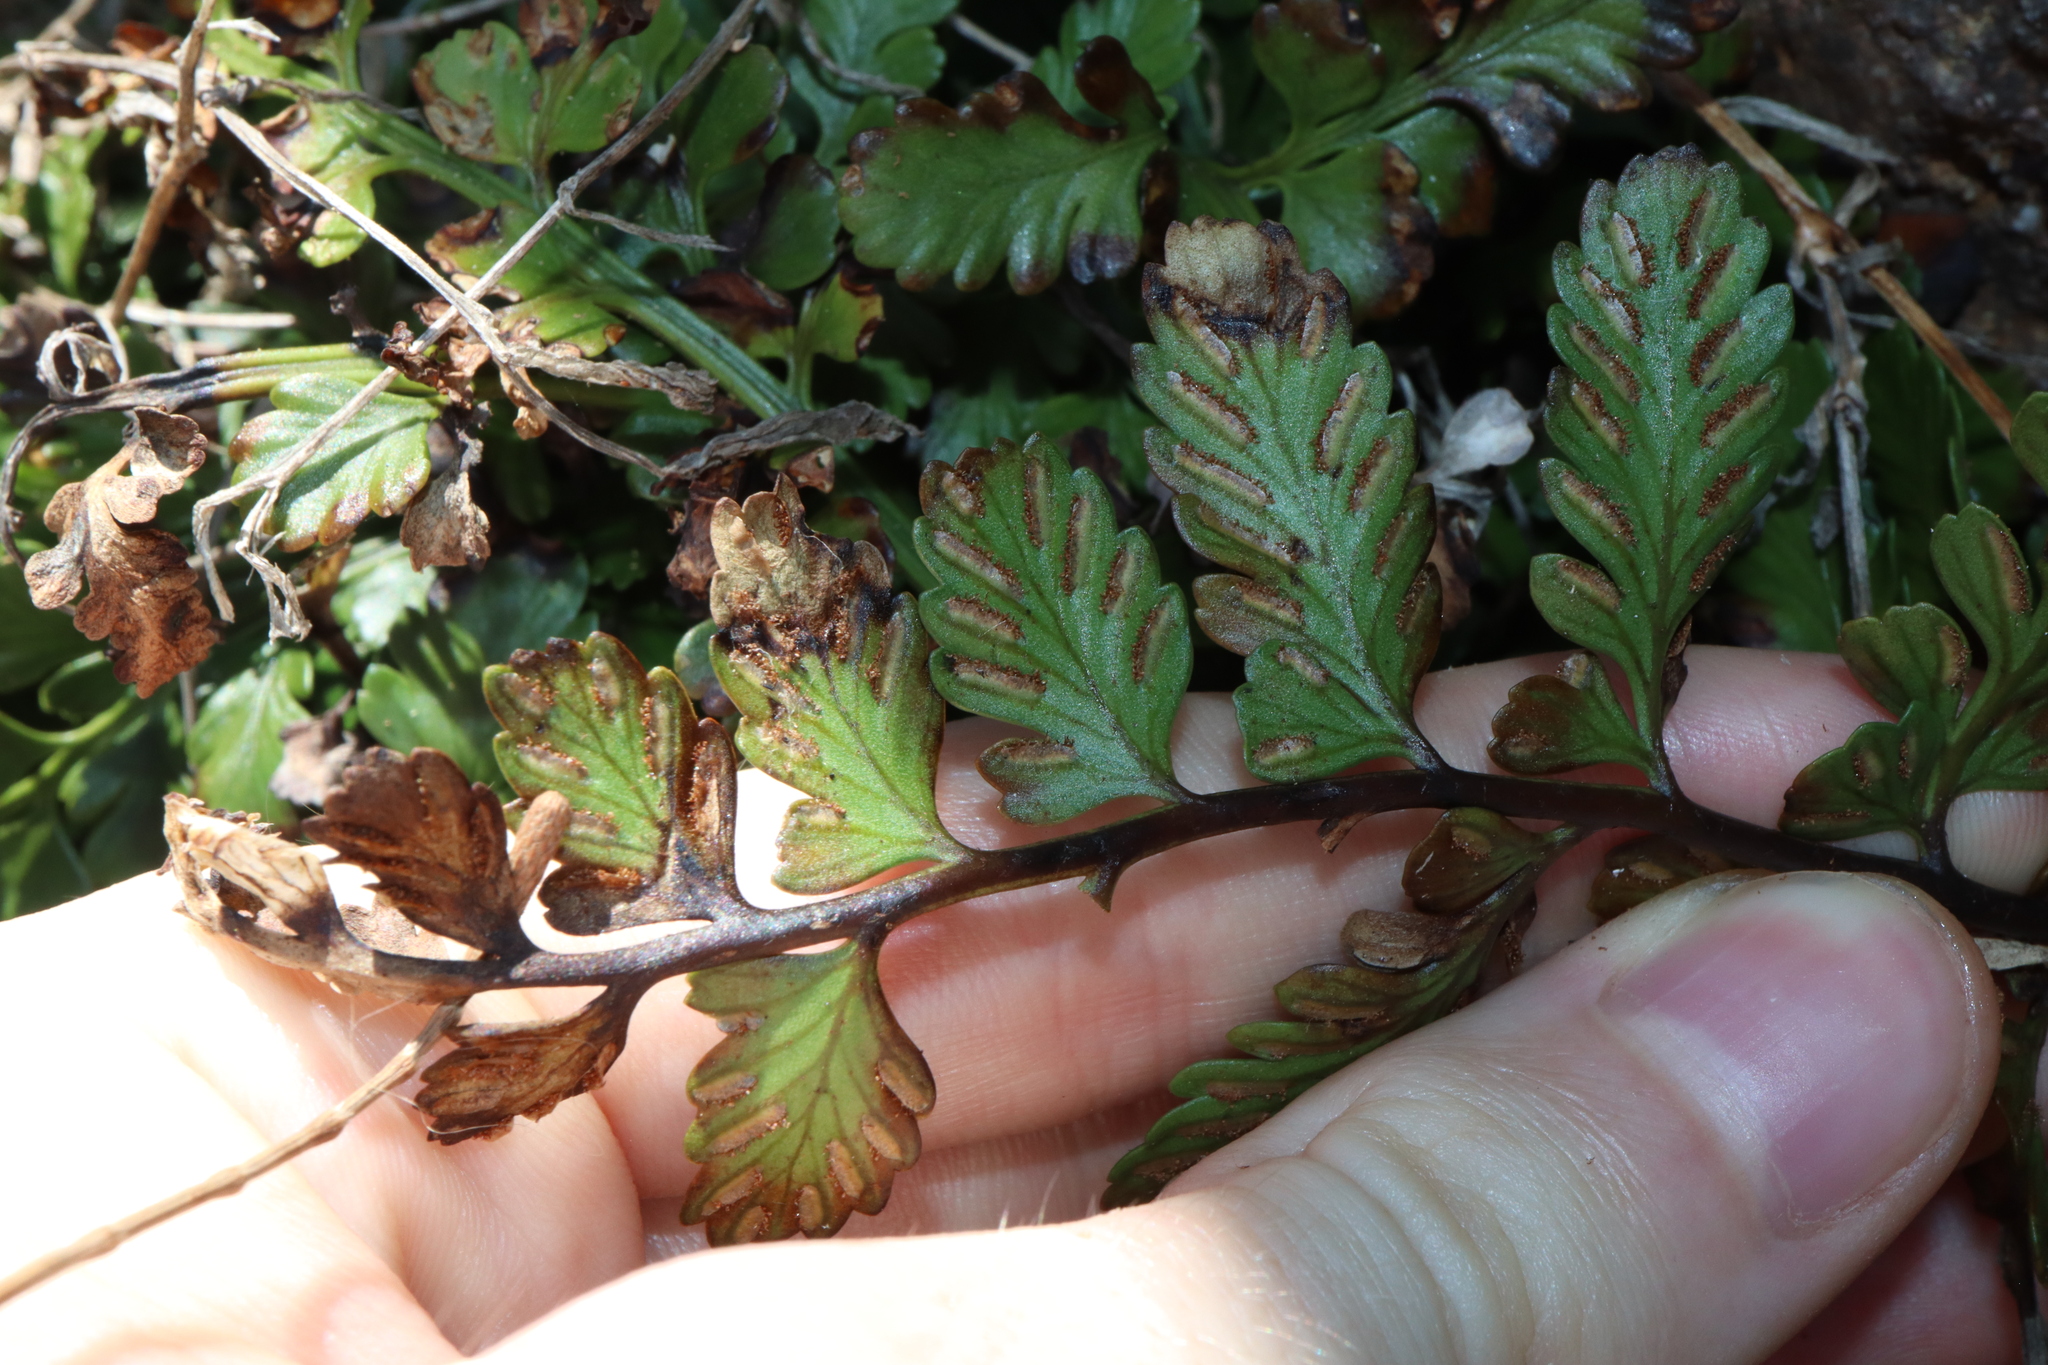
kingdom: Plantae
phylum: Tracheophyta
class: Polypodiopsida
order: Polypodiales
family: Aspleniaceae
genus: Asplenium
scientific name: Asplenium difforme
